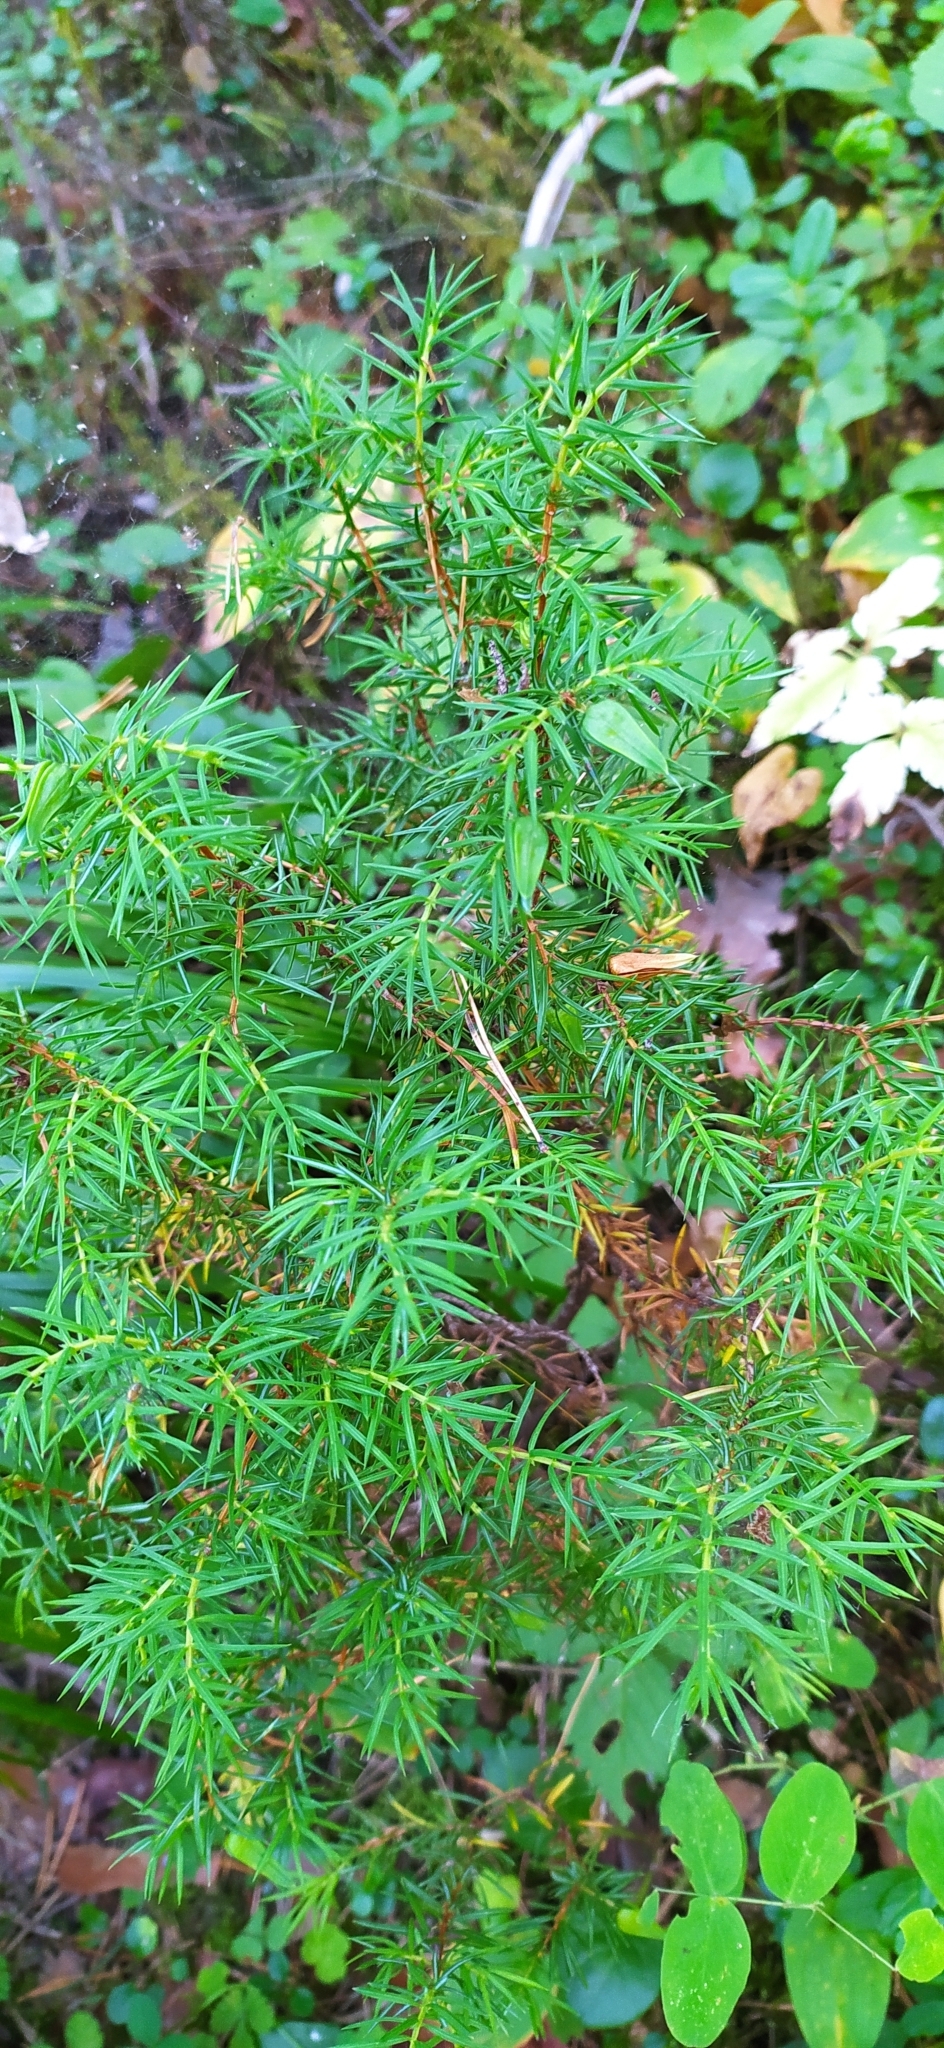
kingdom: Plantae
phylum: Tracheophyta
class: Pinopsida
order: Pinales
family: Cupressaceae
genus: Juniperus
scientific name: Juniperus communis
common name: Common juniper
